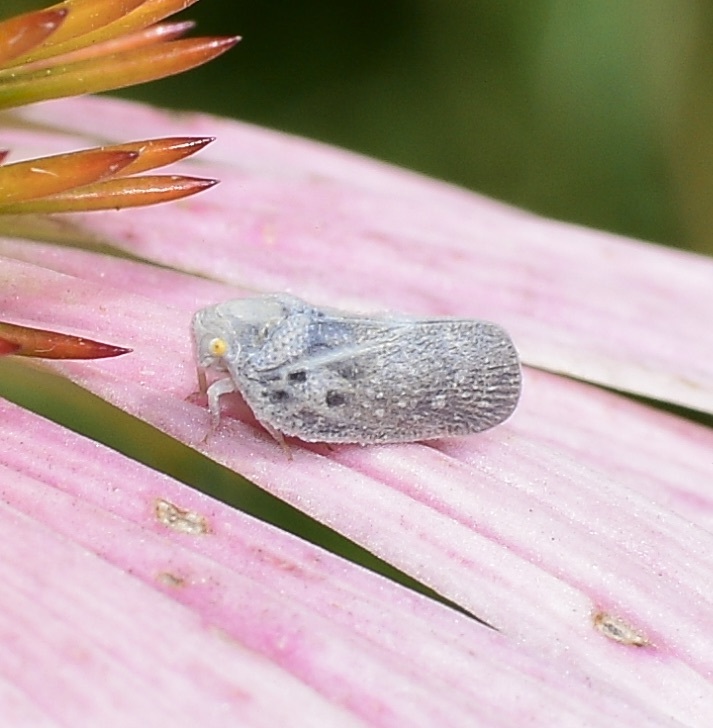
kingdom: Animalia
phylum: Arthropoda
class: Insecta
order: Hemiptera
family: Flatidae
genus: Metcalfa
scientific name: Metcalfa pruinosa
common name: Citrus flatid planthopper
